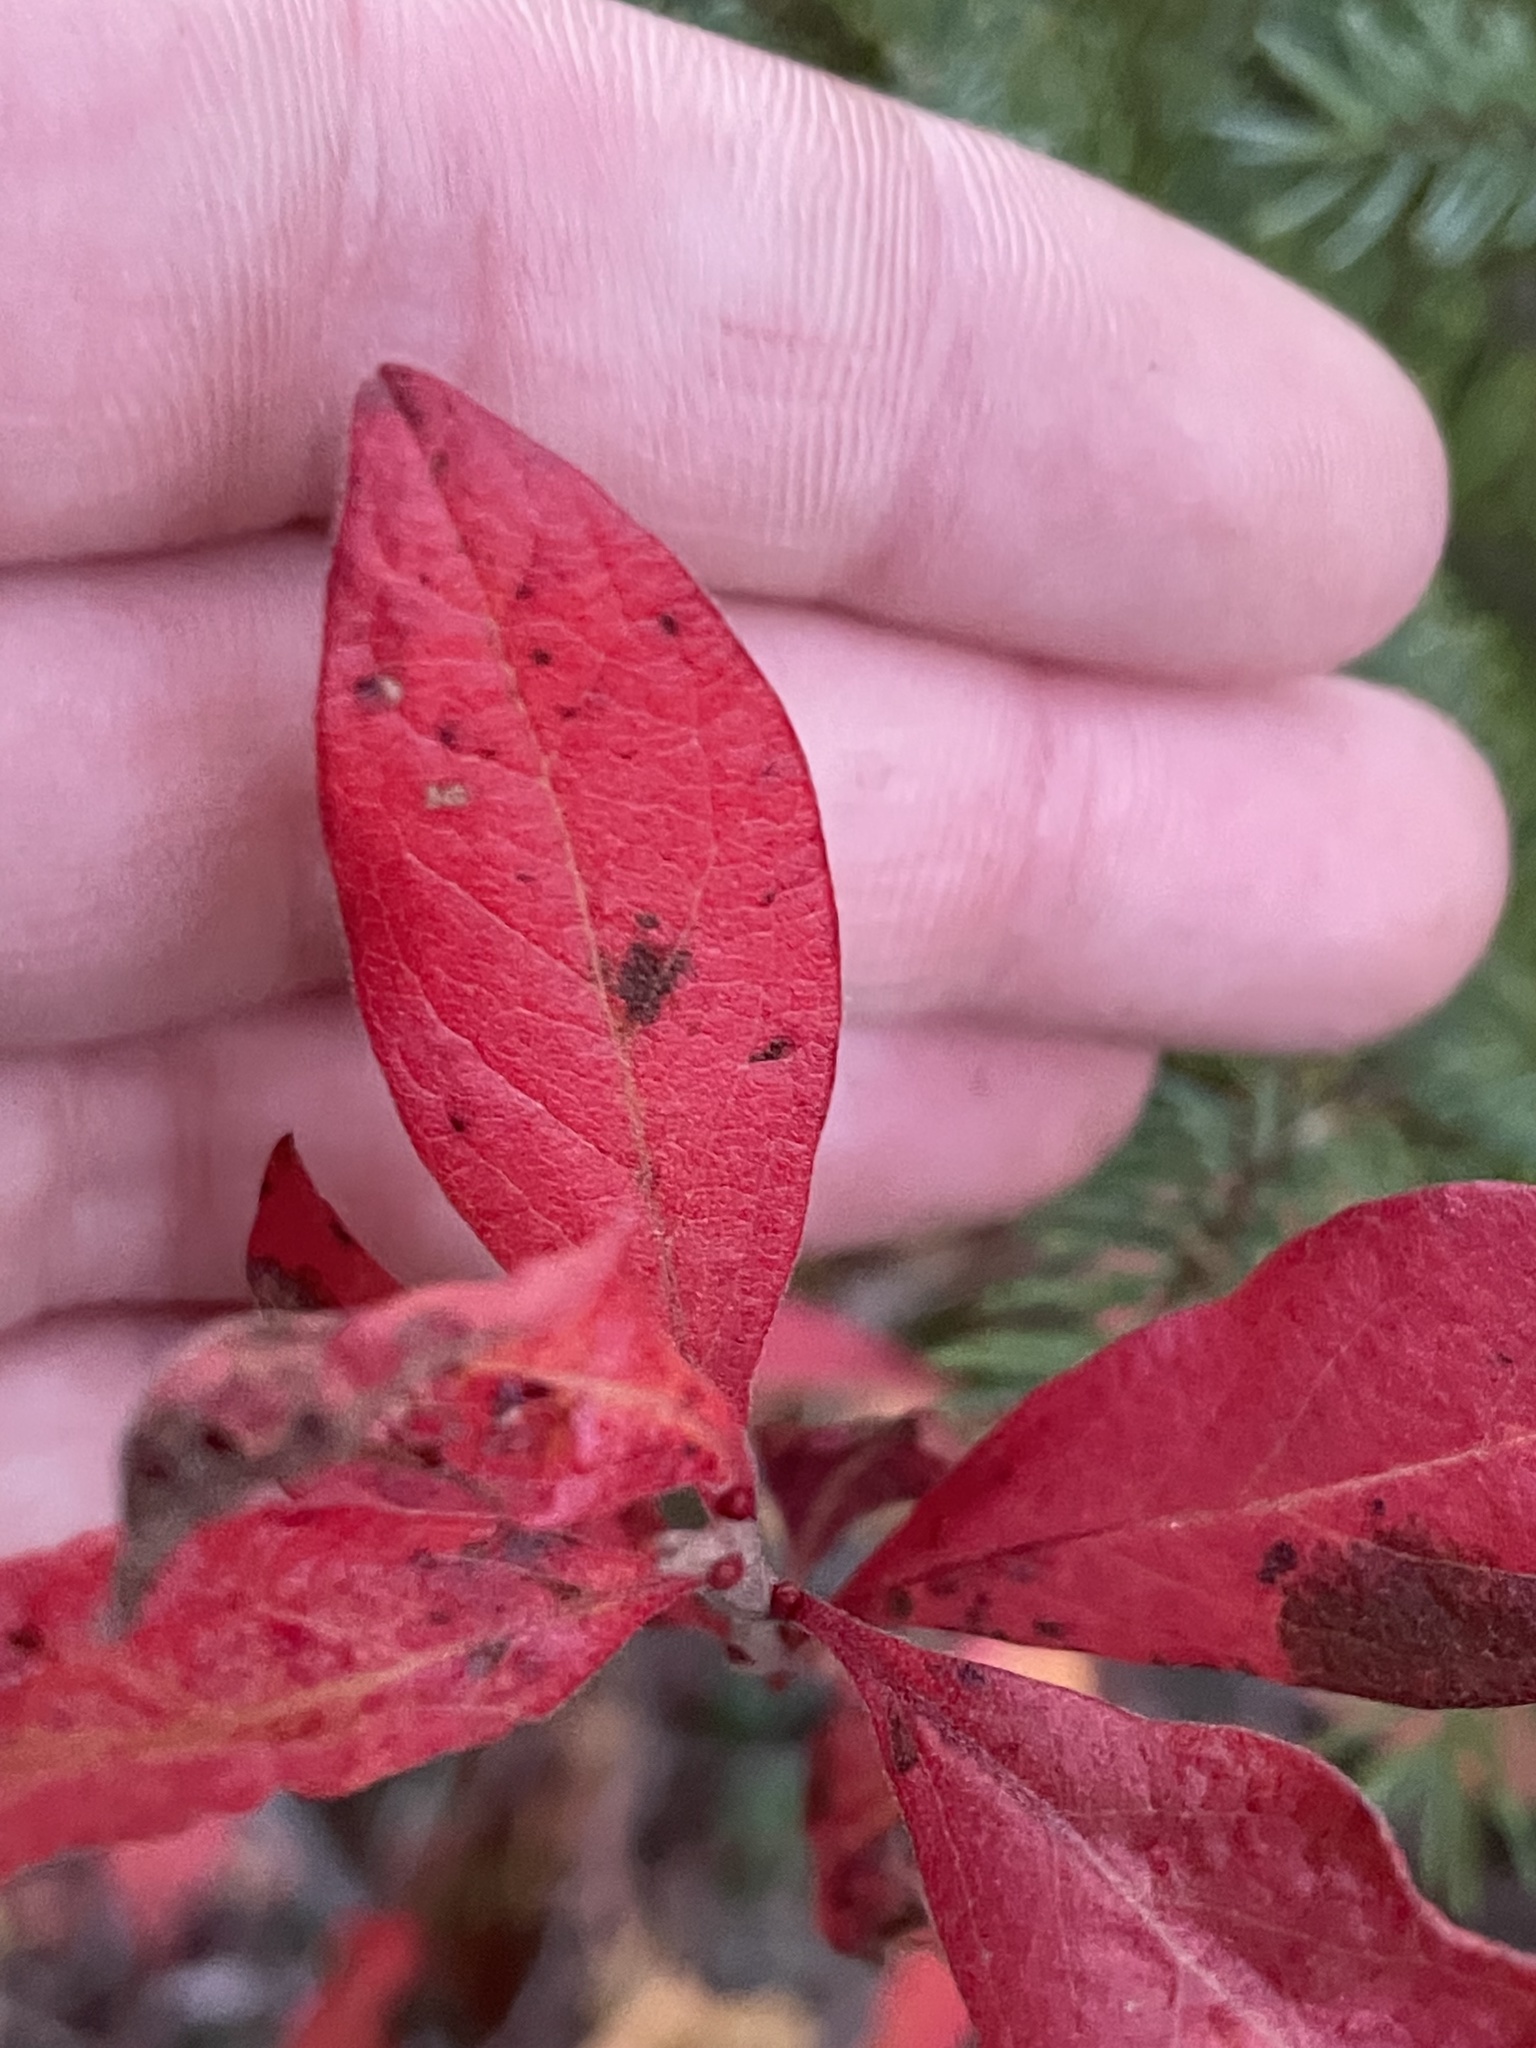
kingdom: Plantae
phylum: Tracheophyta
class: Magnoliopsida
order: Ericales
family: Ericaceae
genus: Gaylussacia
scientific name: Gaylussacia baccata
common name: Black huckleberry
